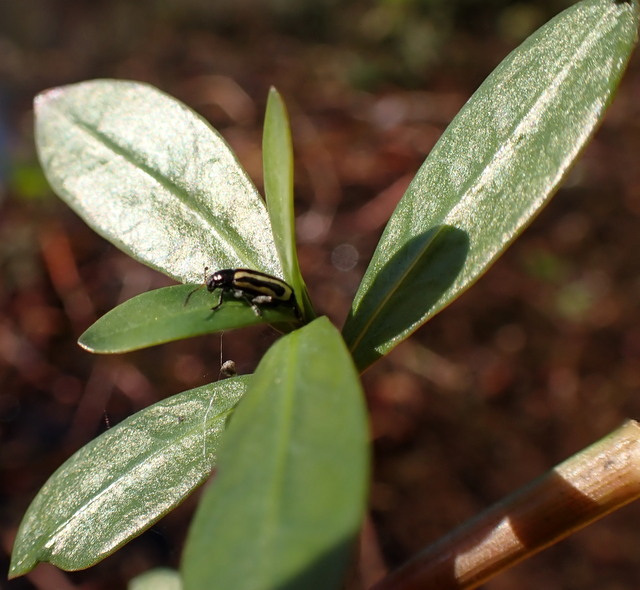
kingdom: Animalia
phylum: Arthropoda
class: Insecta
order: Coleoptera
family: Chrysomelidae
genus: Agasicles
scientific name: Agasicles hygrophila
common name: Alligatorweed flea beetle
